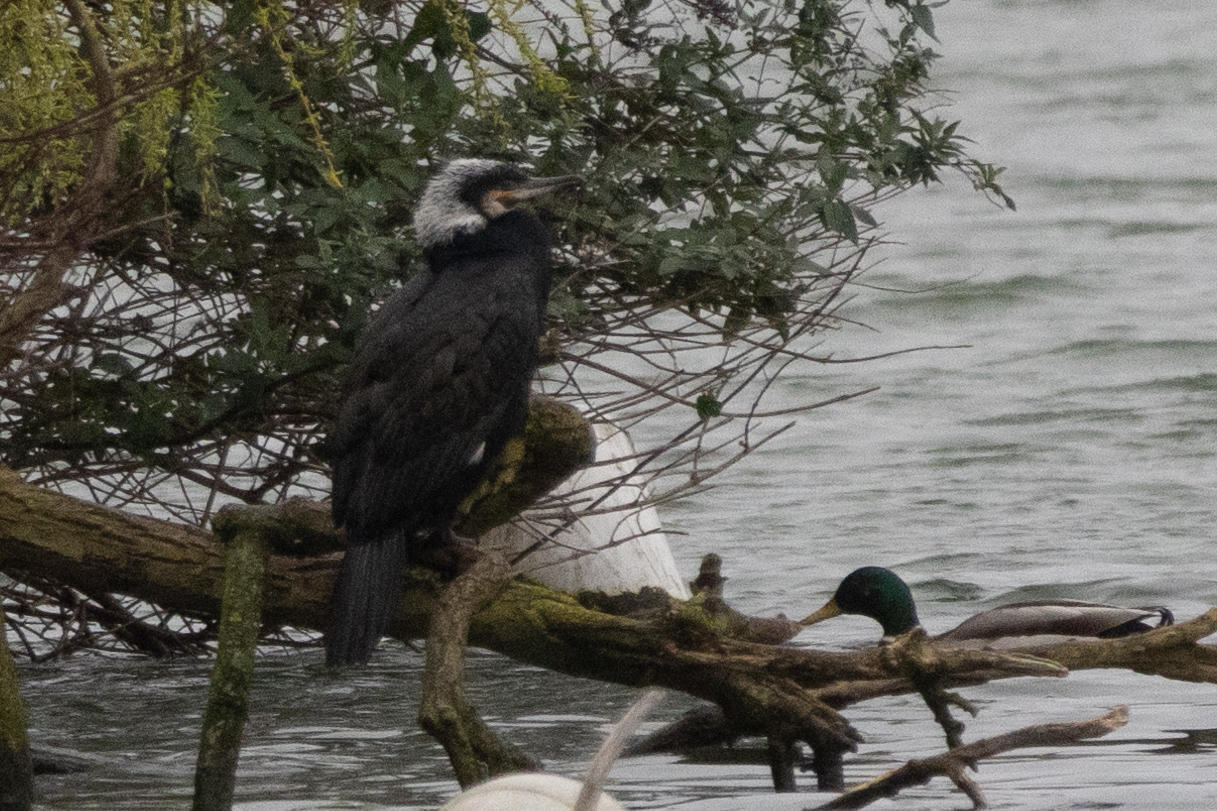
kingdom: Animalia
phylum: Chordata
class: Aves
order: Suliformes
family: Phalacrocoracidae
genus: Phalacrocorax
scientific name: Phalacrocorax carbo
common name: Great cormorant
